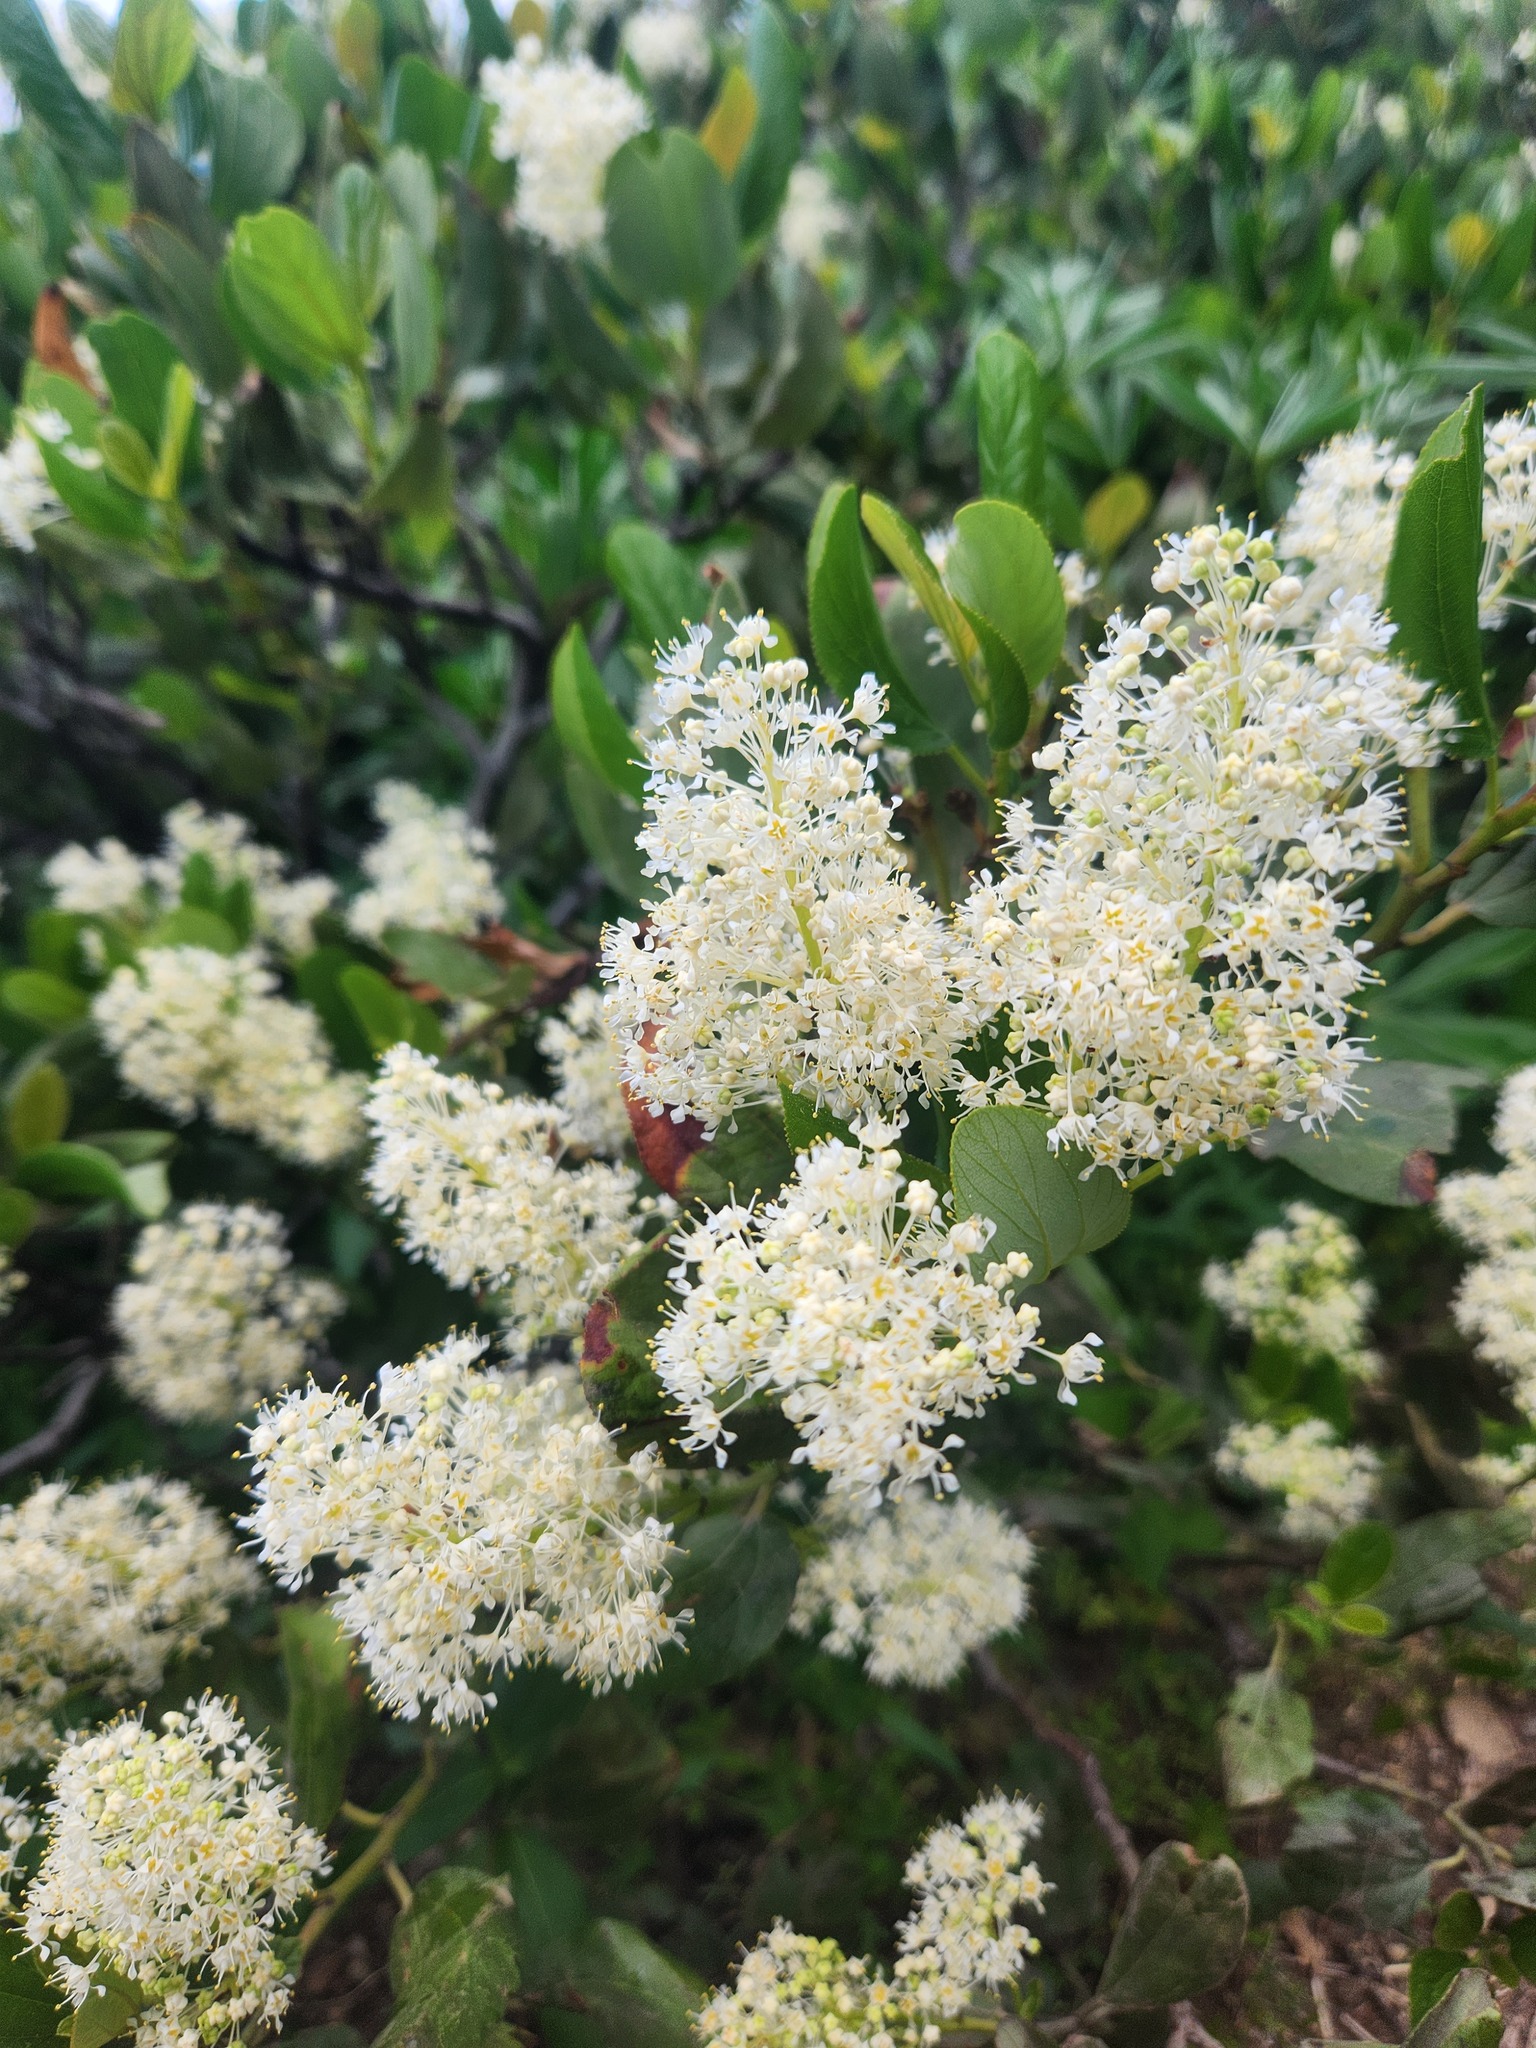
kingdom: Plantae
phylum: Tracheophyta
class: Magnoliopsida
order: Rosales
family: Rhamnaceae
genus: Ceanothus
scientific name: Ceanothus velutinus
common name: Snowbrush
